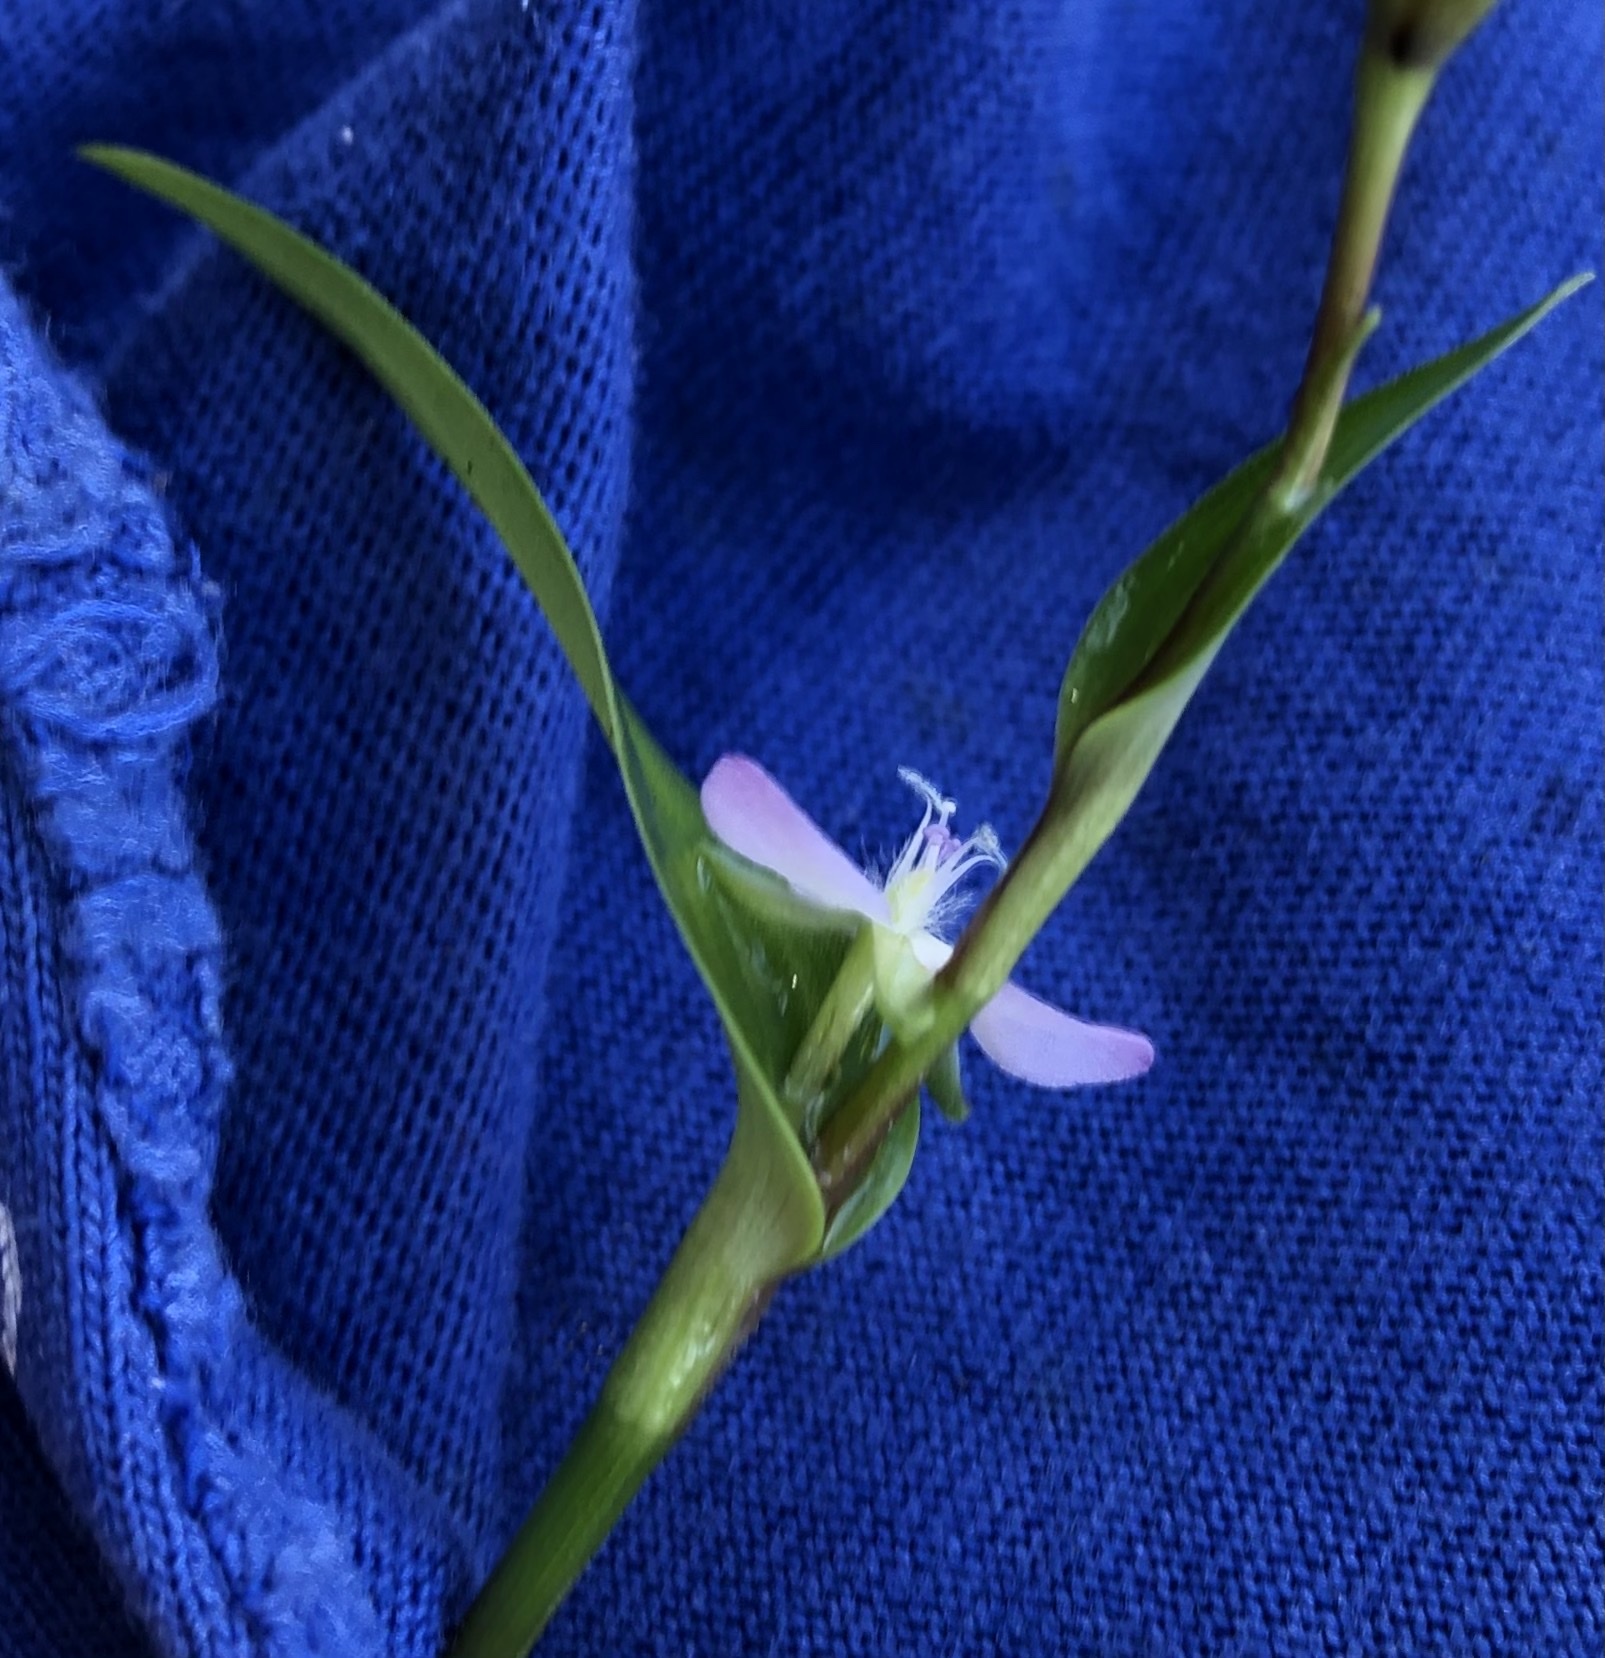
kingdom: Plantae
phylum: Tracheophyta
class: Liliopsida
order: Commelinales
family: Commelinaceae
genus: Murdannia
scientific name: Murdannia keisak
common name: Wartremoving herb
